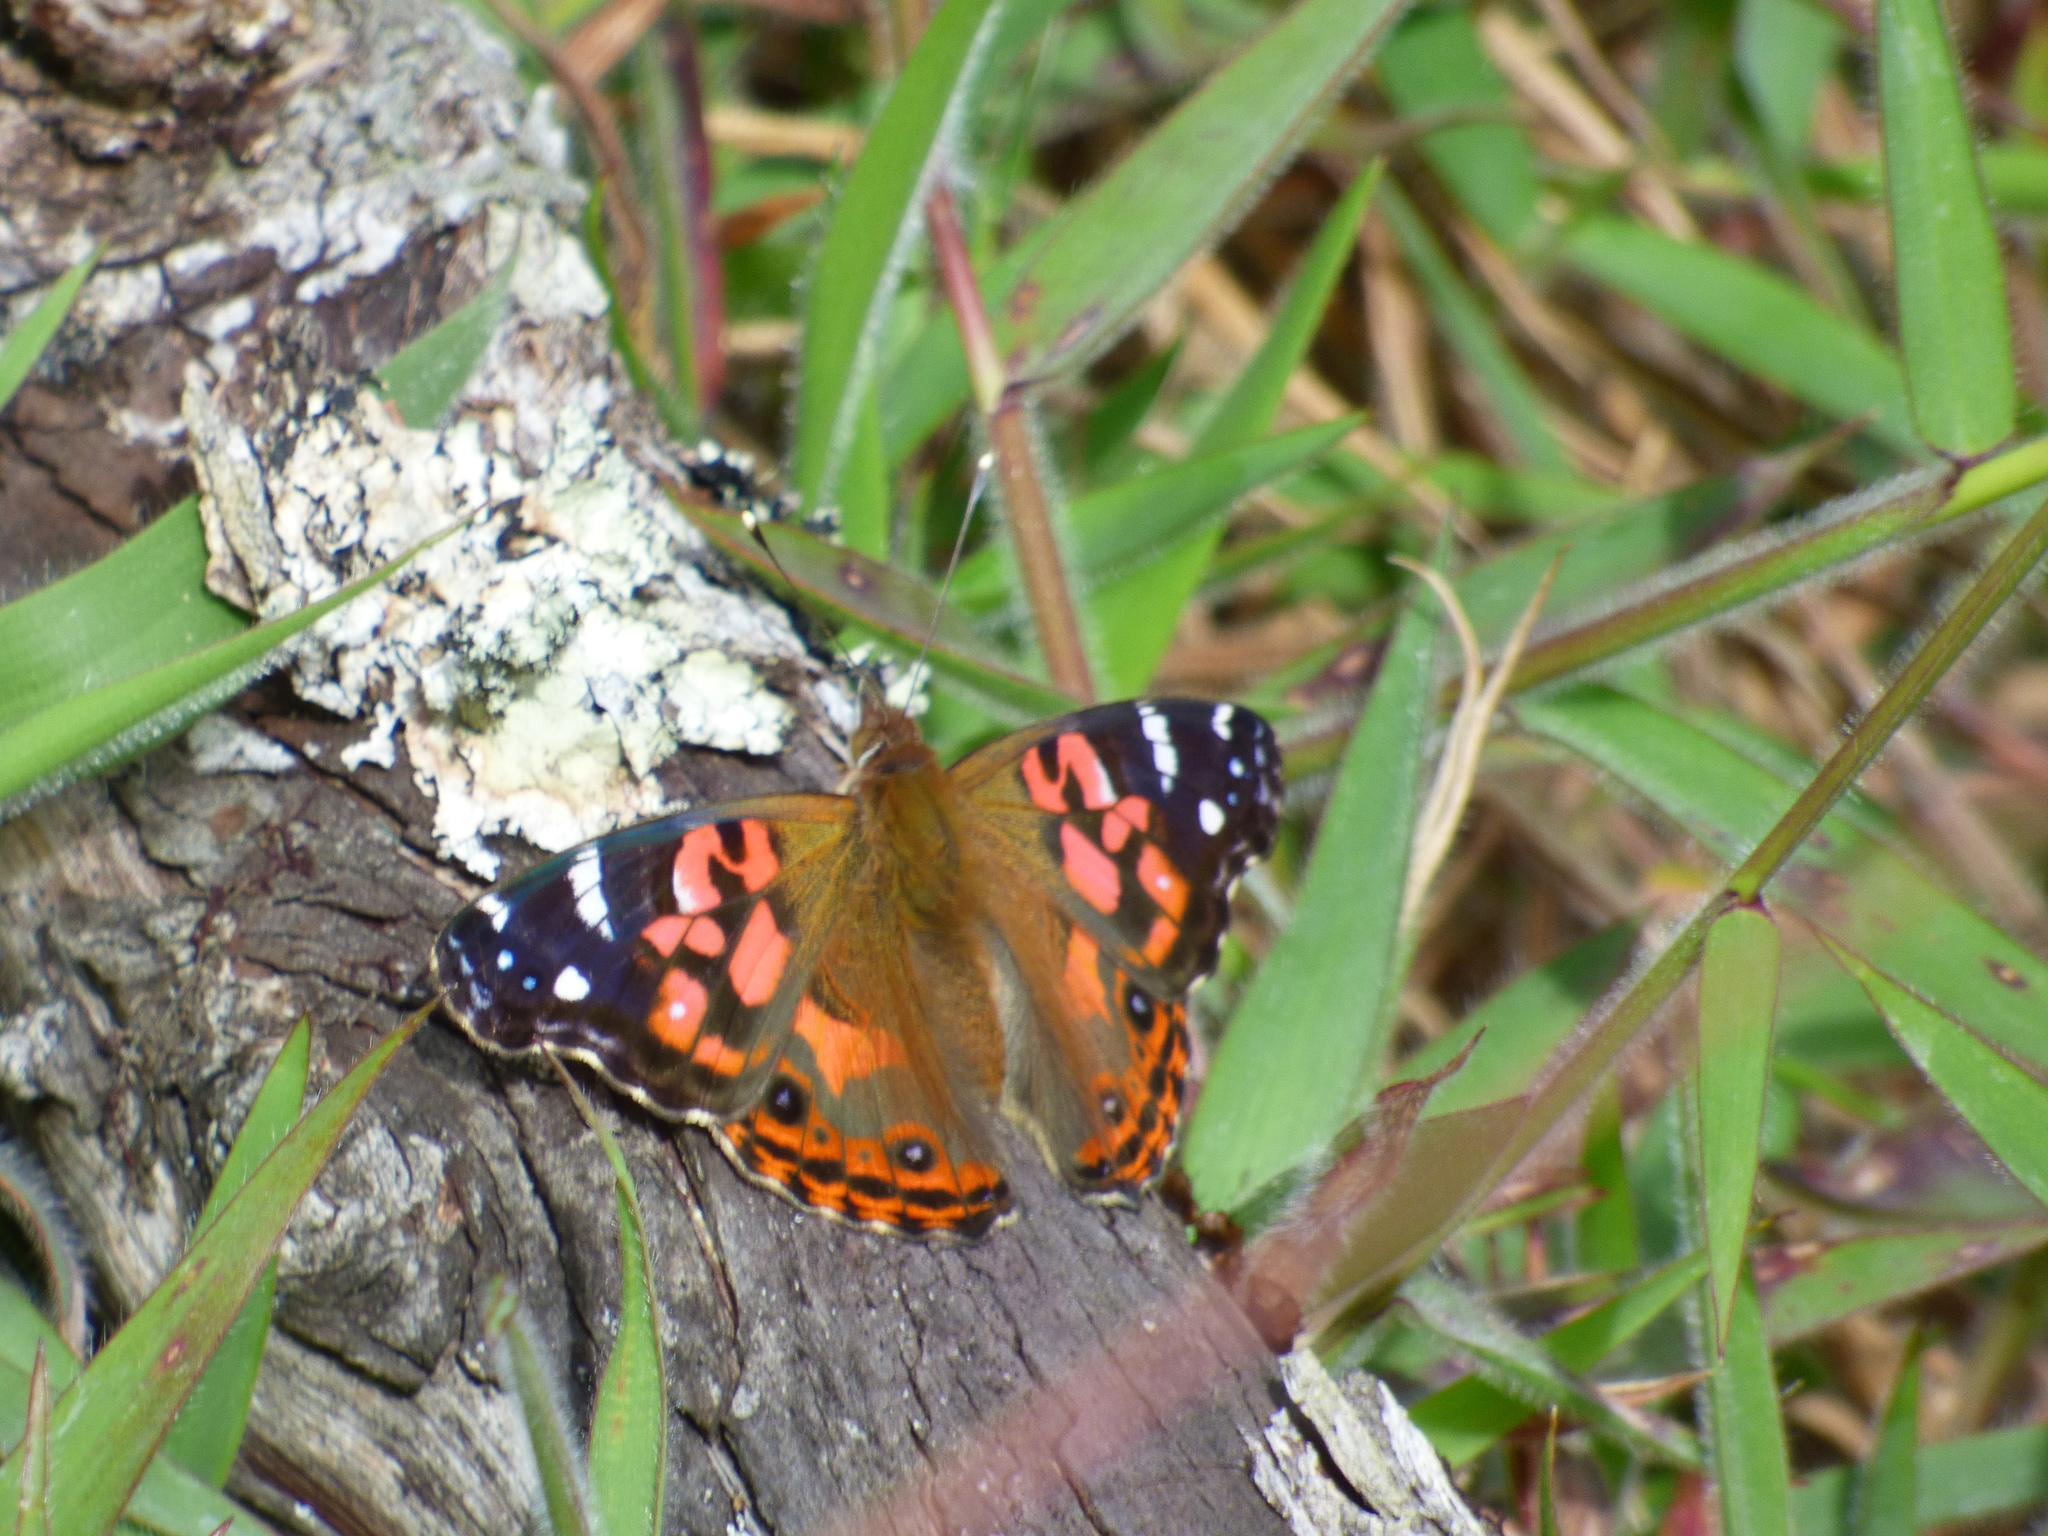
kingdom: Animalia
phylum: Arthropoda
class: Insecta
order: Lepidoptera
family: Nymphalidae
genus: Vanessa
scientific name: Vanessa braziliensis
